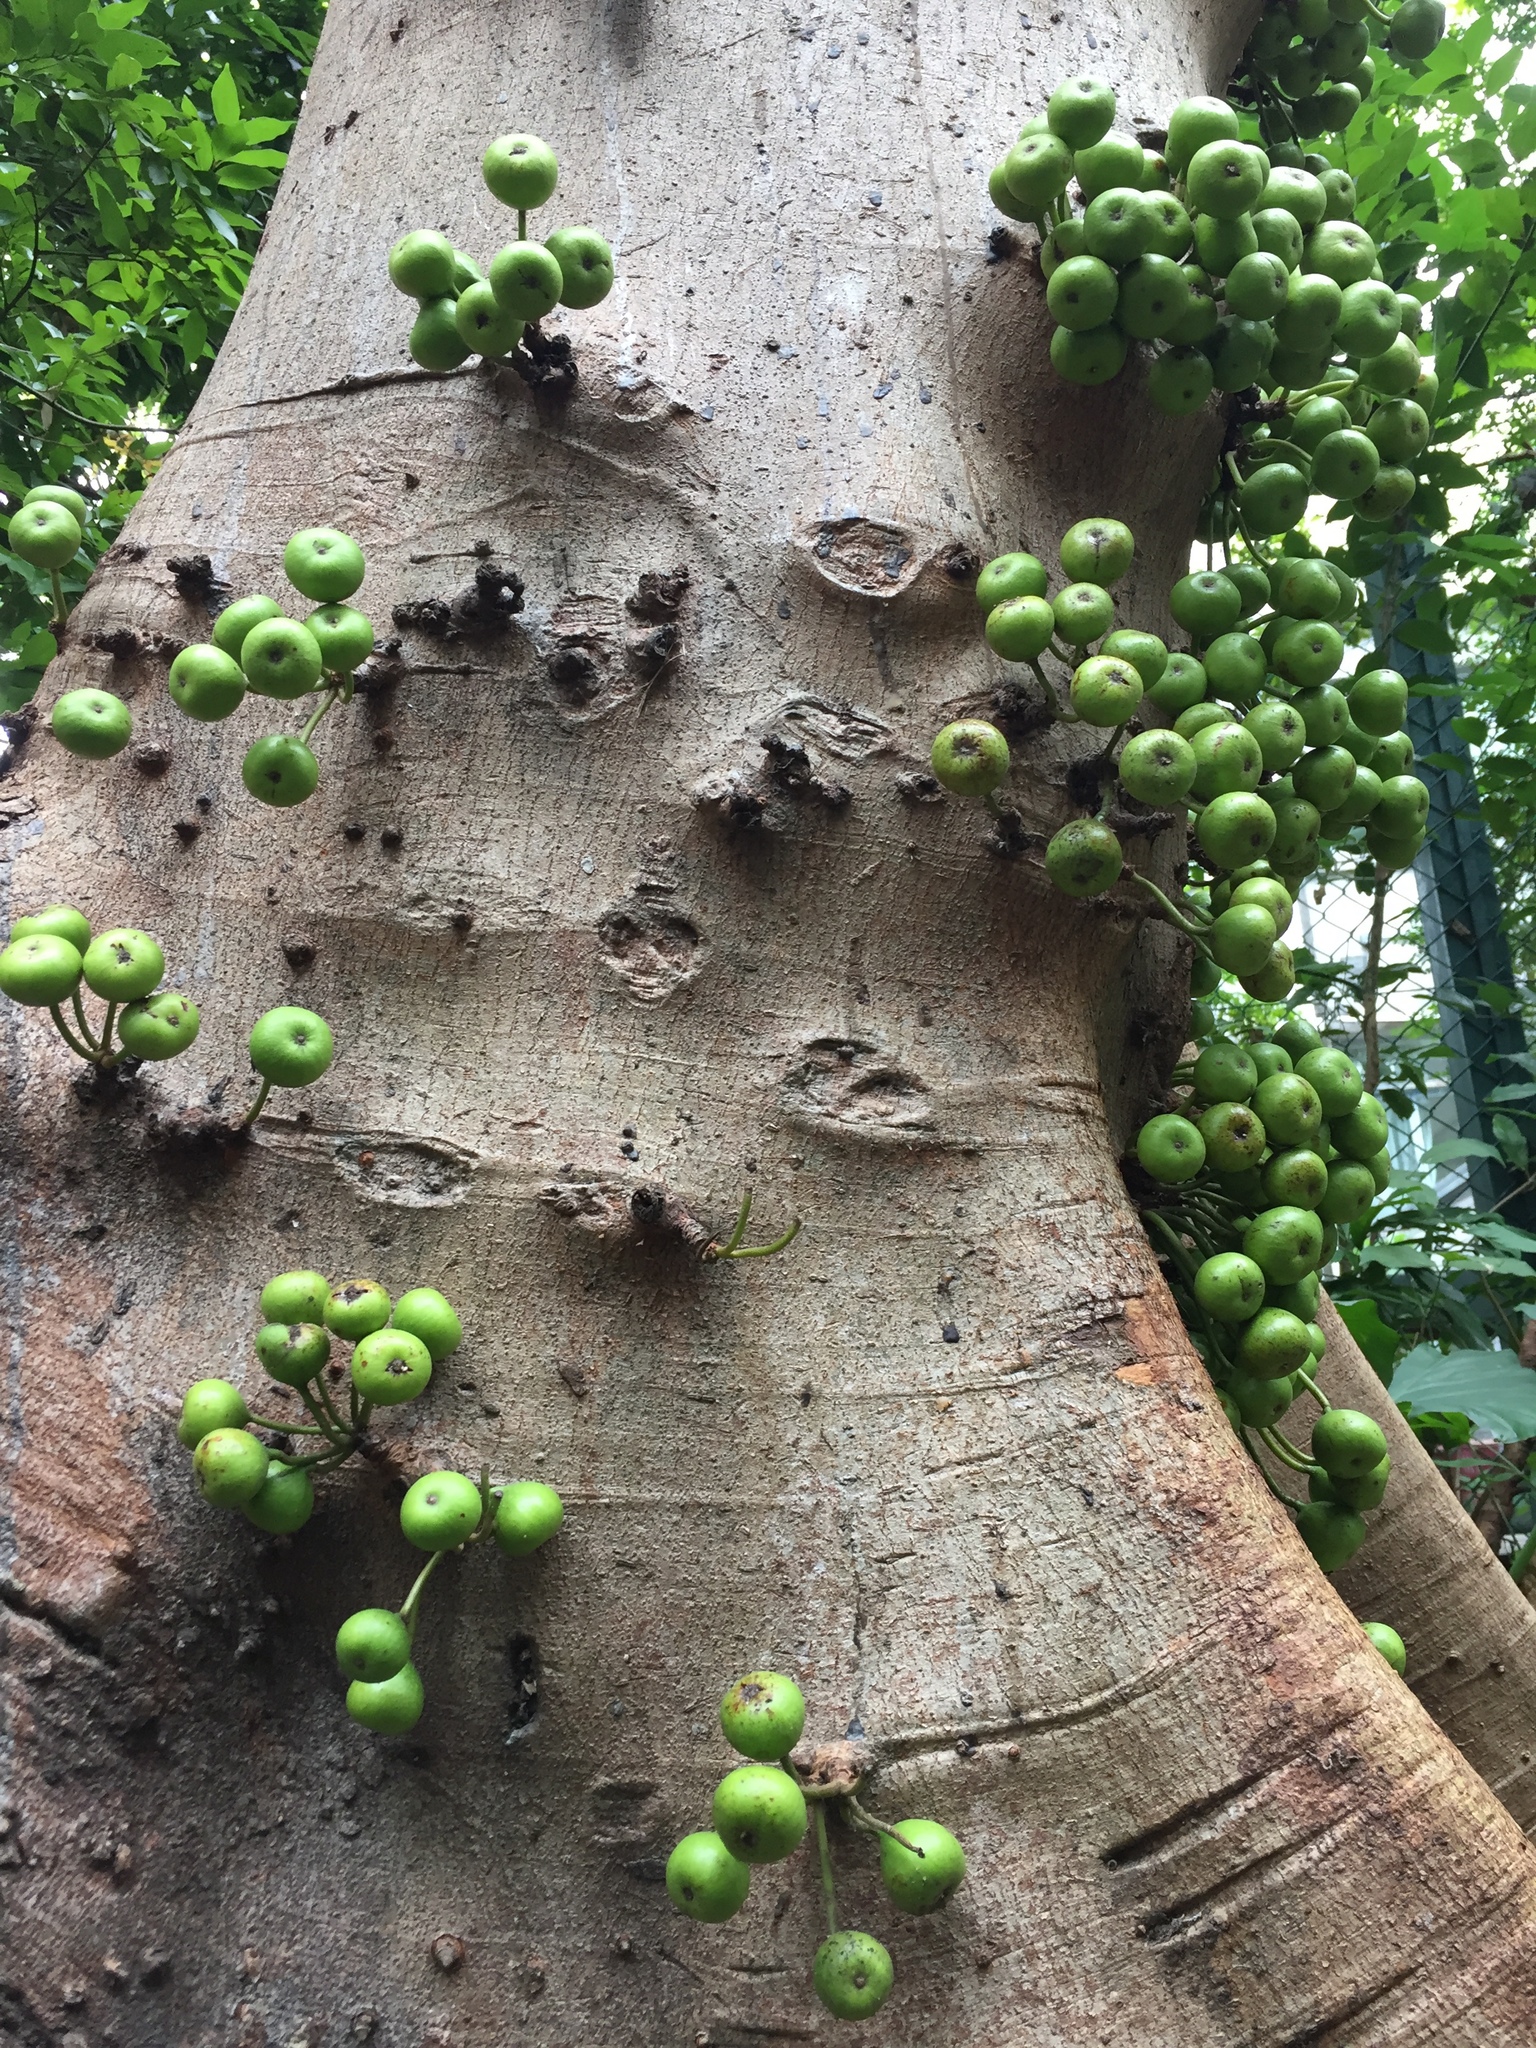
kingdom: Plantae
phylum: Tracheophyta
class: Magnoliopsida
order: Rosales
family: Moraceae
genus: Ficus
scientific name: Ficus variegata
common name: Variegated fig
